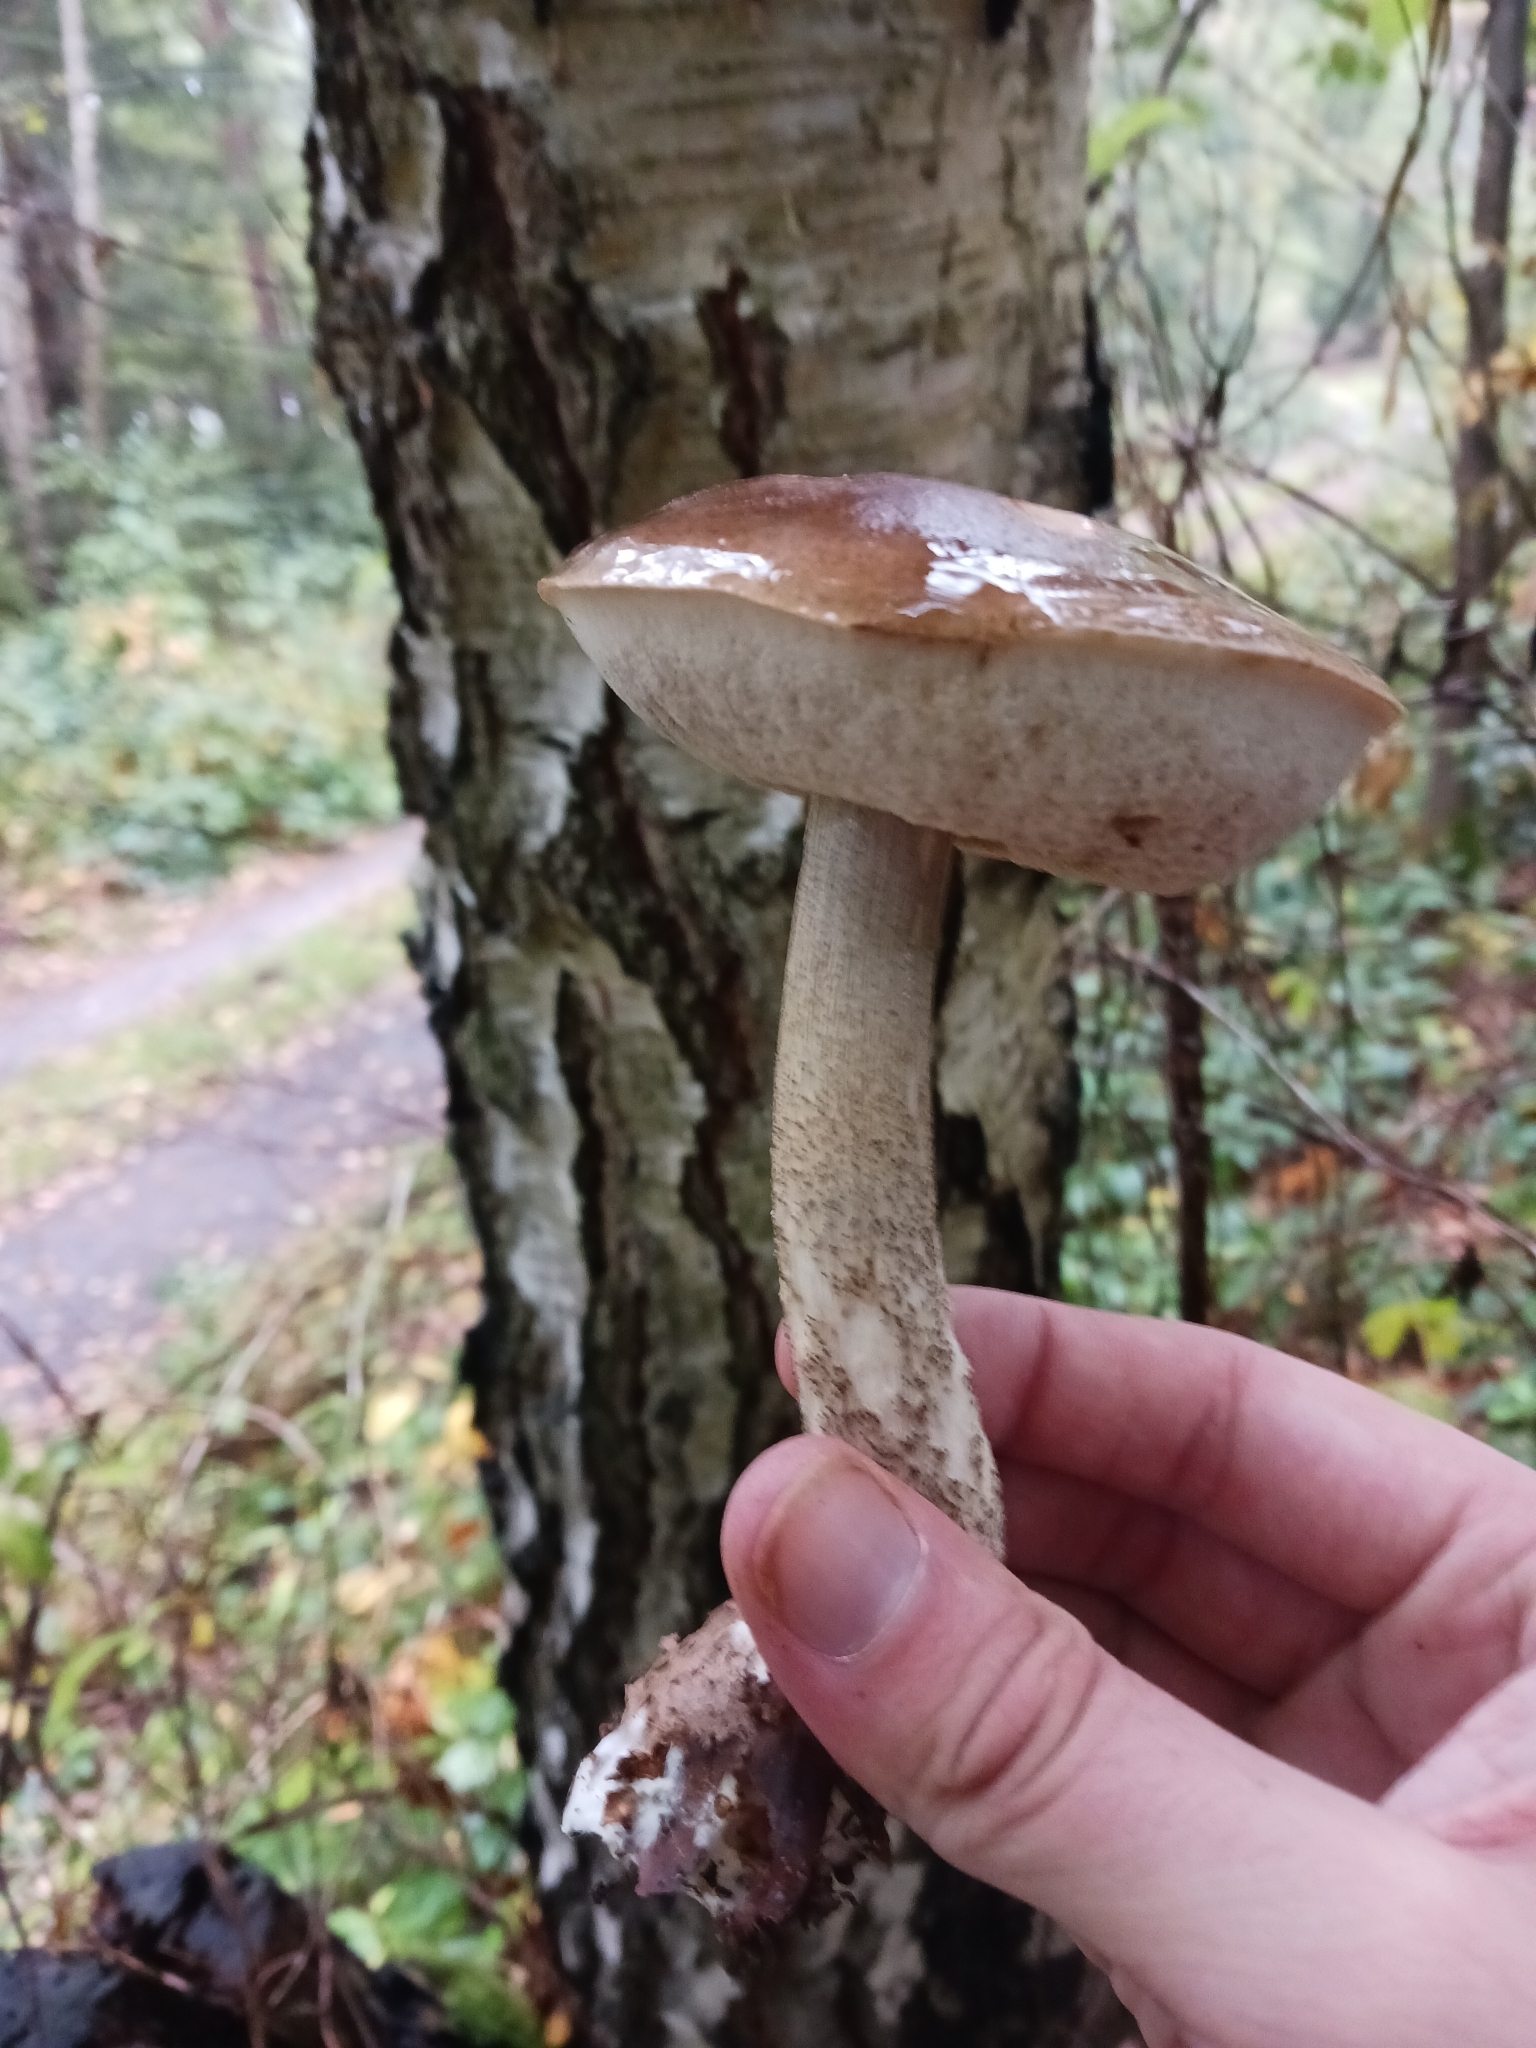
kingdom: Fungi
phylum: Basidiomycota
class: Agaricomycetes
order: Boletales
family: Boletaceae
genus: Leccinum
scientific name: Leccinum scabrum
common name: Blushing bolete
